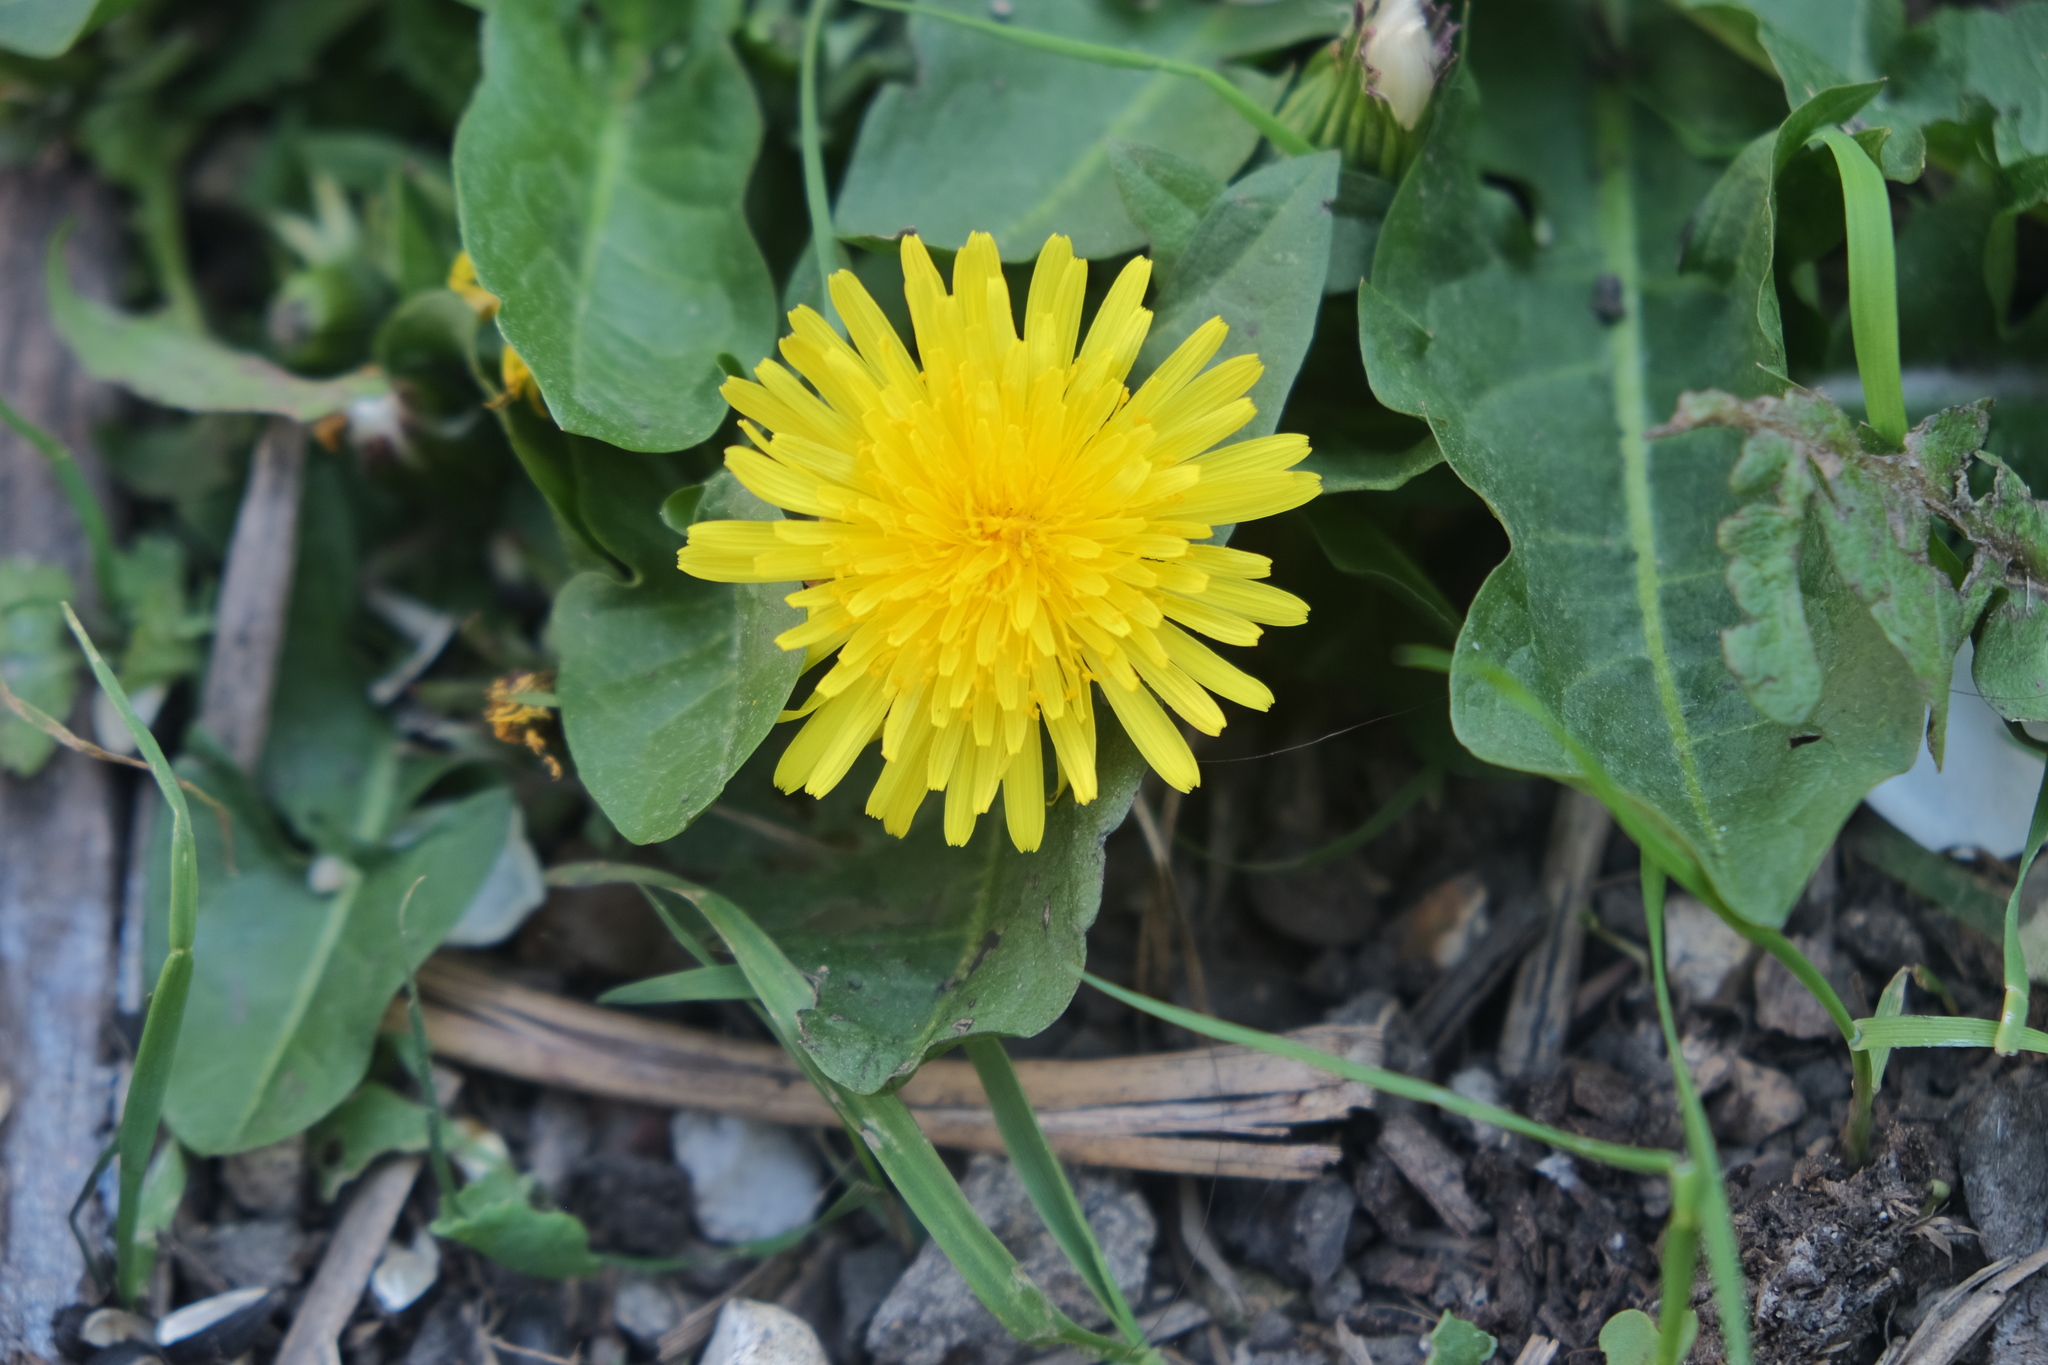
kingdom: Plantae
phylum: Tracheophyta
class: Magnoliopsida
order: Asterales
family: Asteraceae
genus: Taraxacum
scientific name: Taraxacum officinale
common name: Common dandelion
